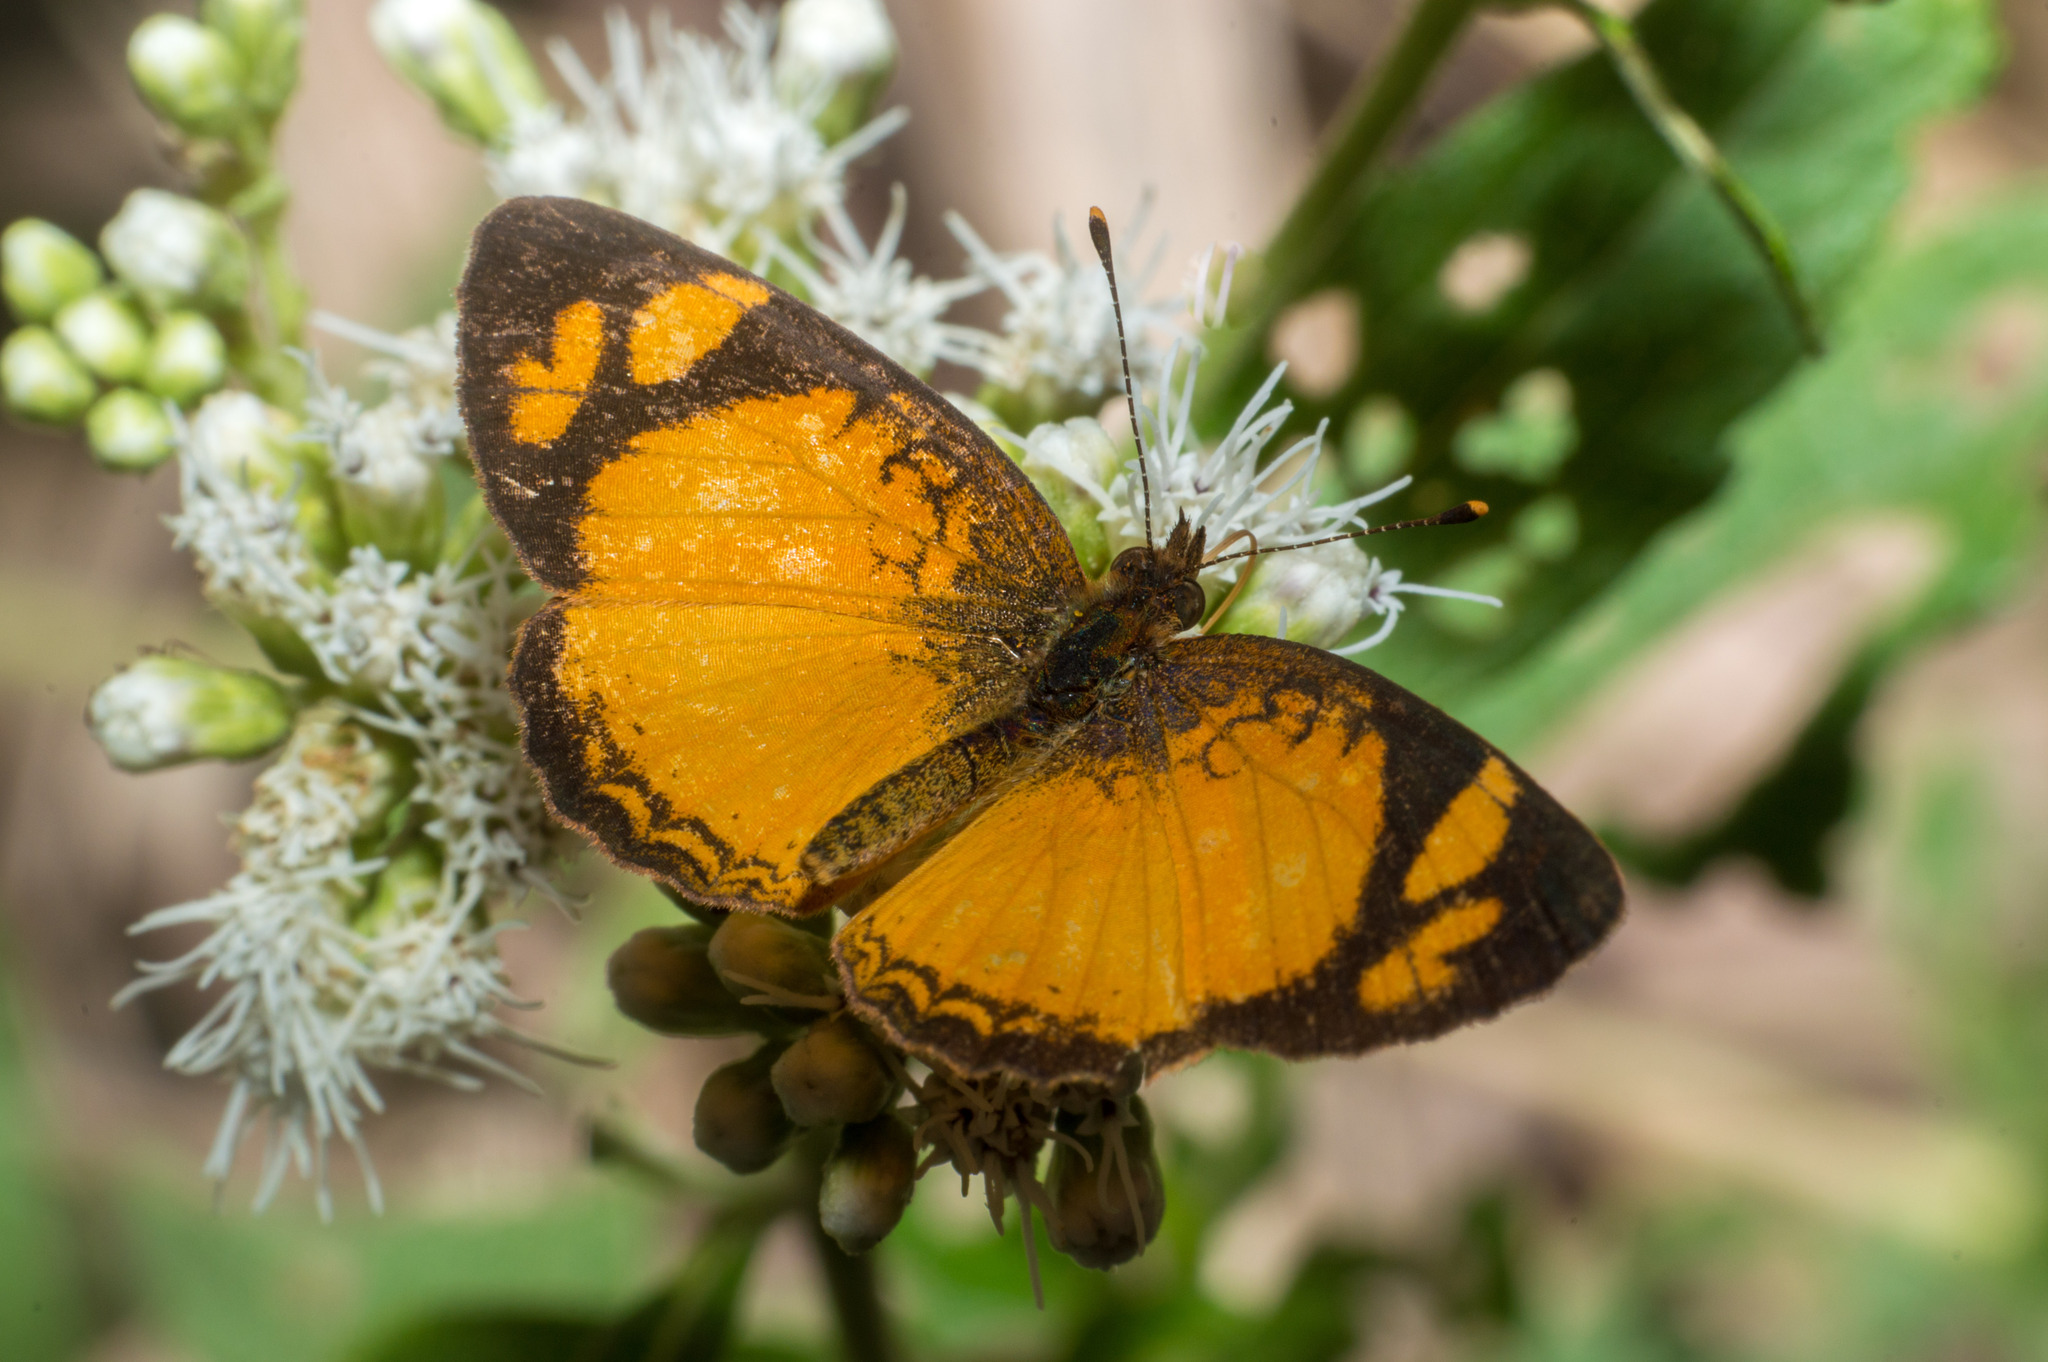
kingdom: Animalia
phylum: Arthropoda
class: Insecta
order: Lepidoptera
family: Nymphalidae
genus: Tegosa
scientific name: Tegosa claudina
